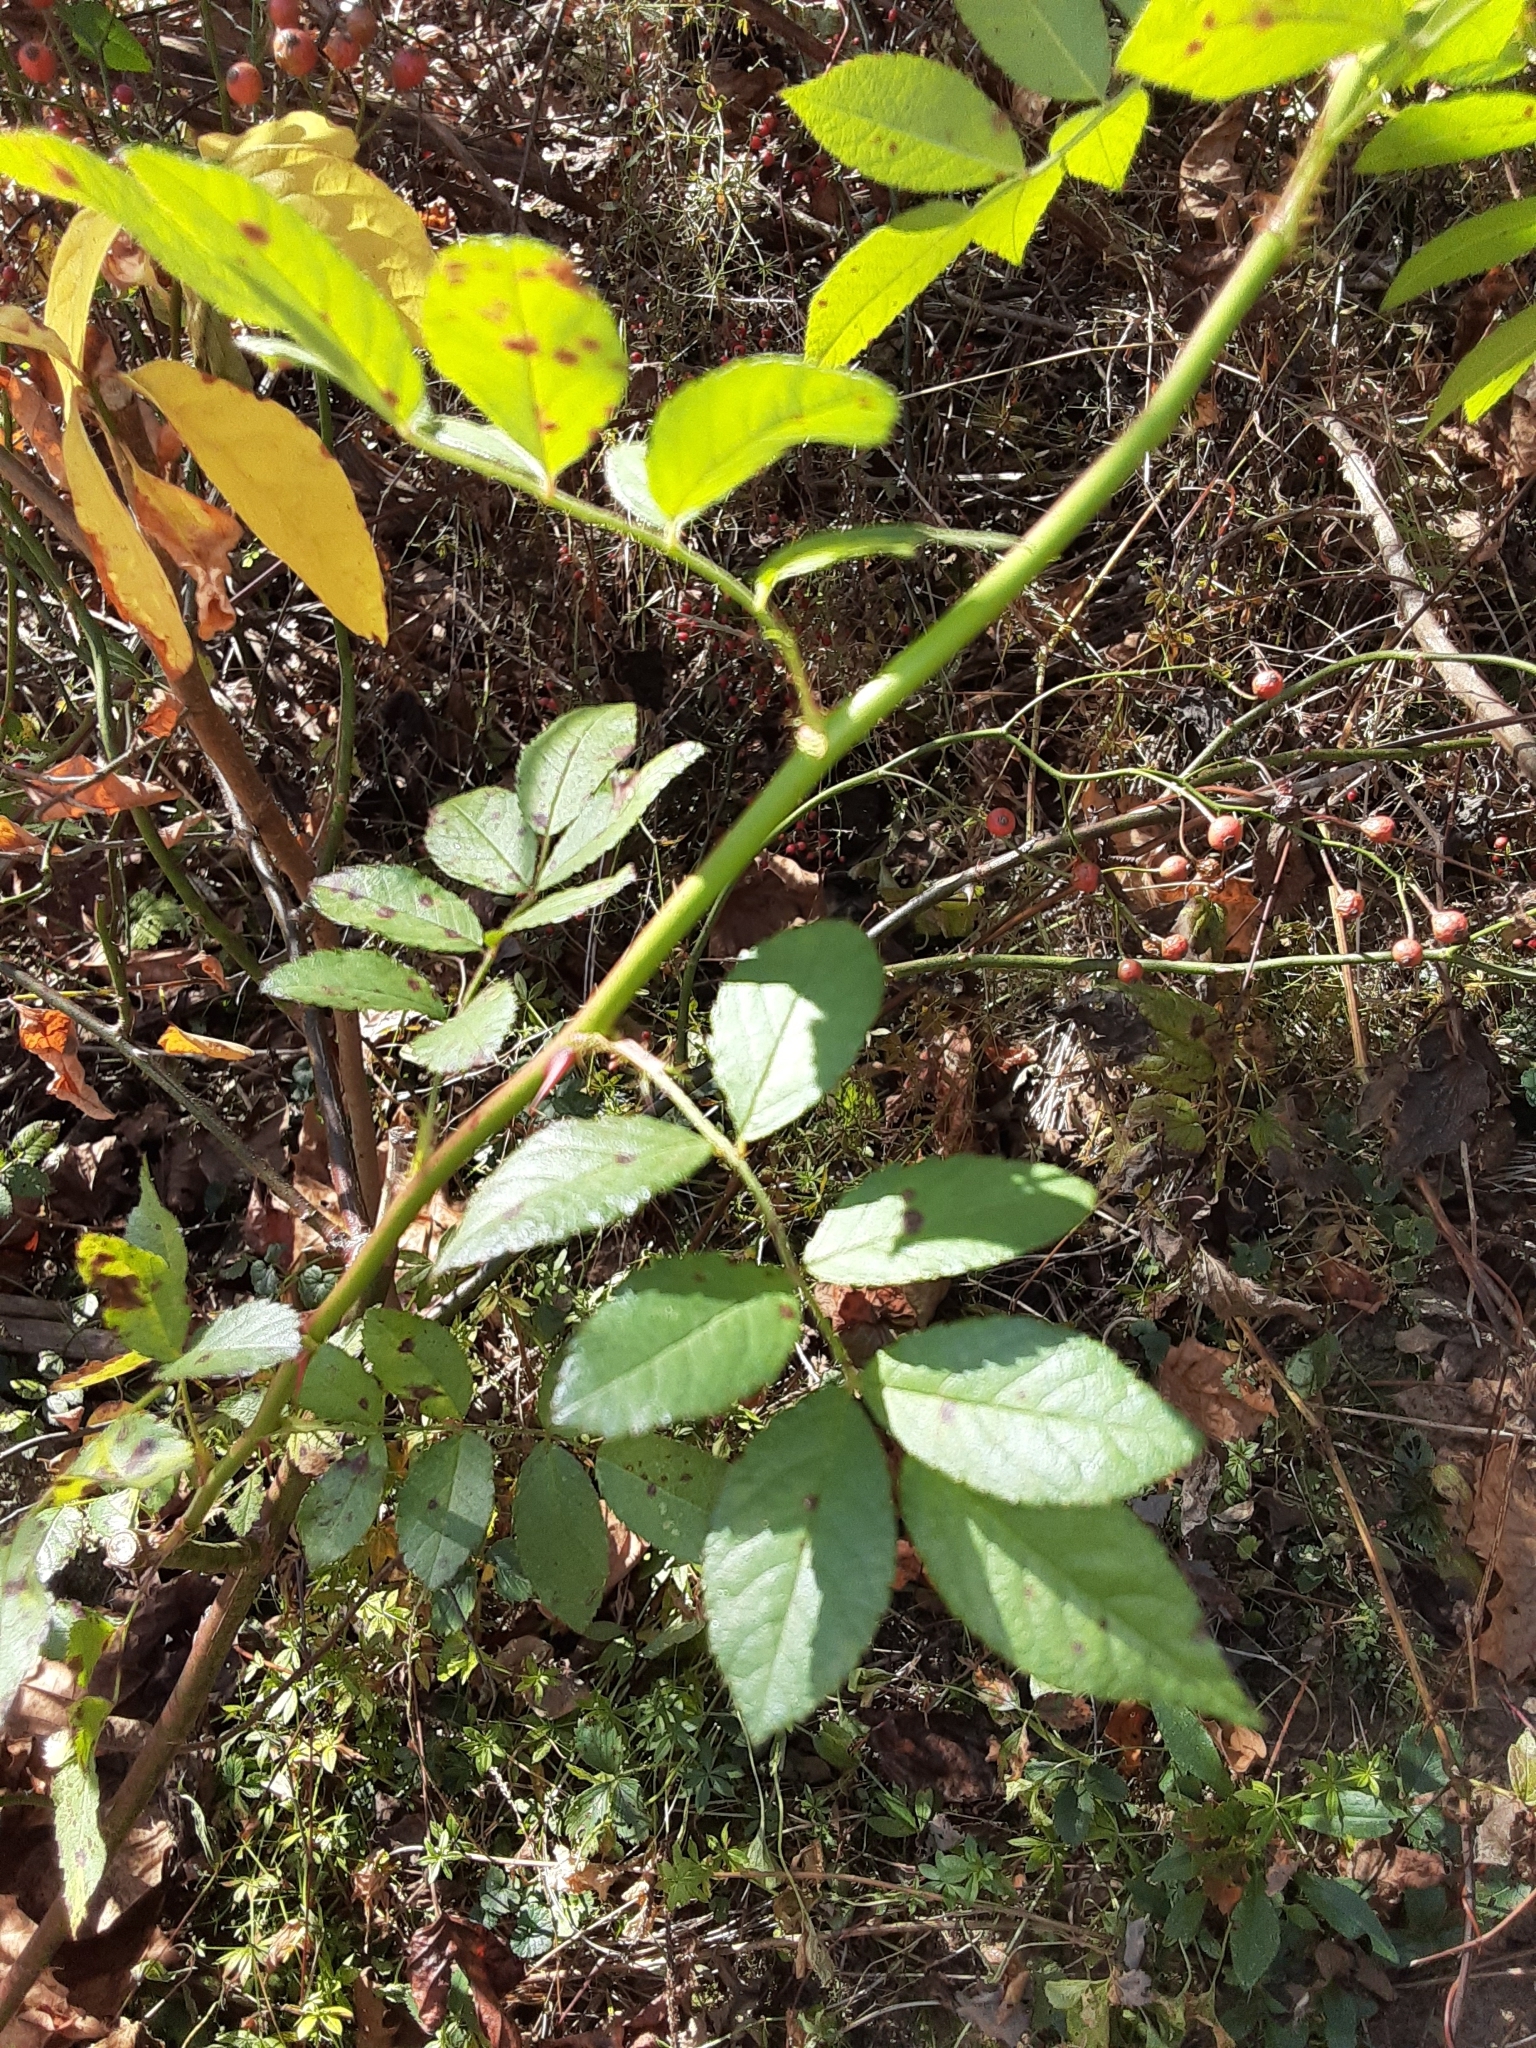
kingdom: Plantae
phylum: Tracheophyta
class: Magnoliopsida
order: Rosales
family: Rosaceae
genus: Rosa
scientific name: Rosa multiflora
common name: Multiflora rose
